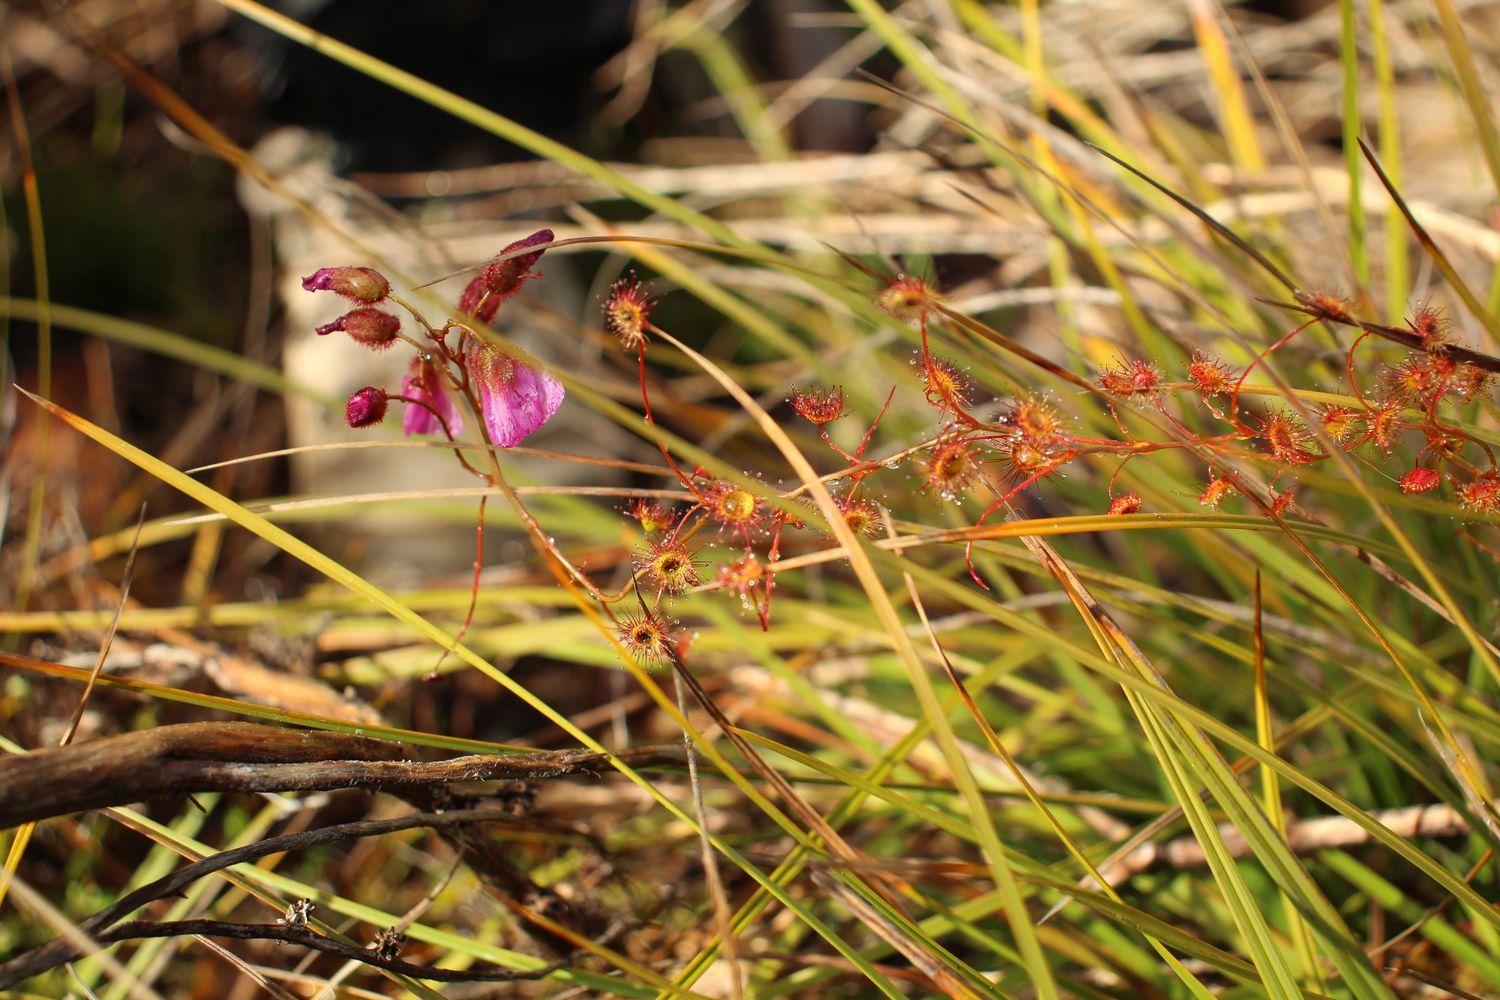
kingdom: Plantae
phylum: Tracheophyta
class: Magnoliopsida
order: Caryophyllales
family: Droseraceae
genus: Drosera
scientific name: Drosera
